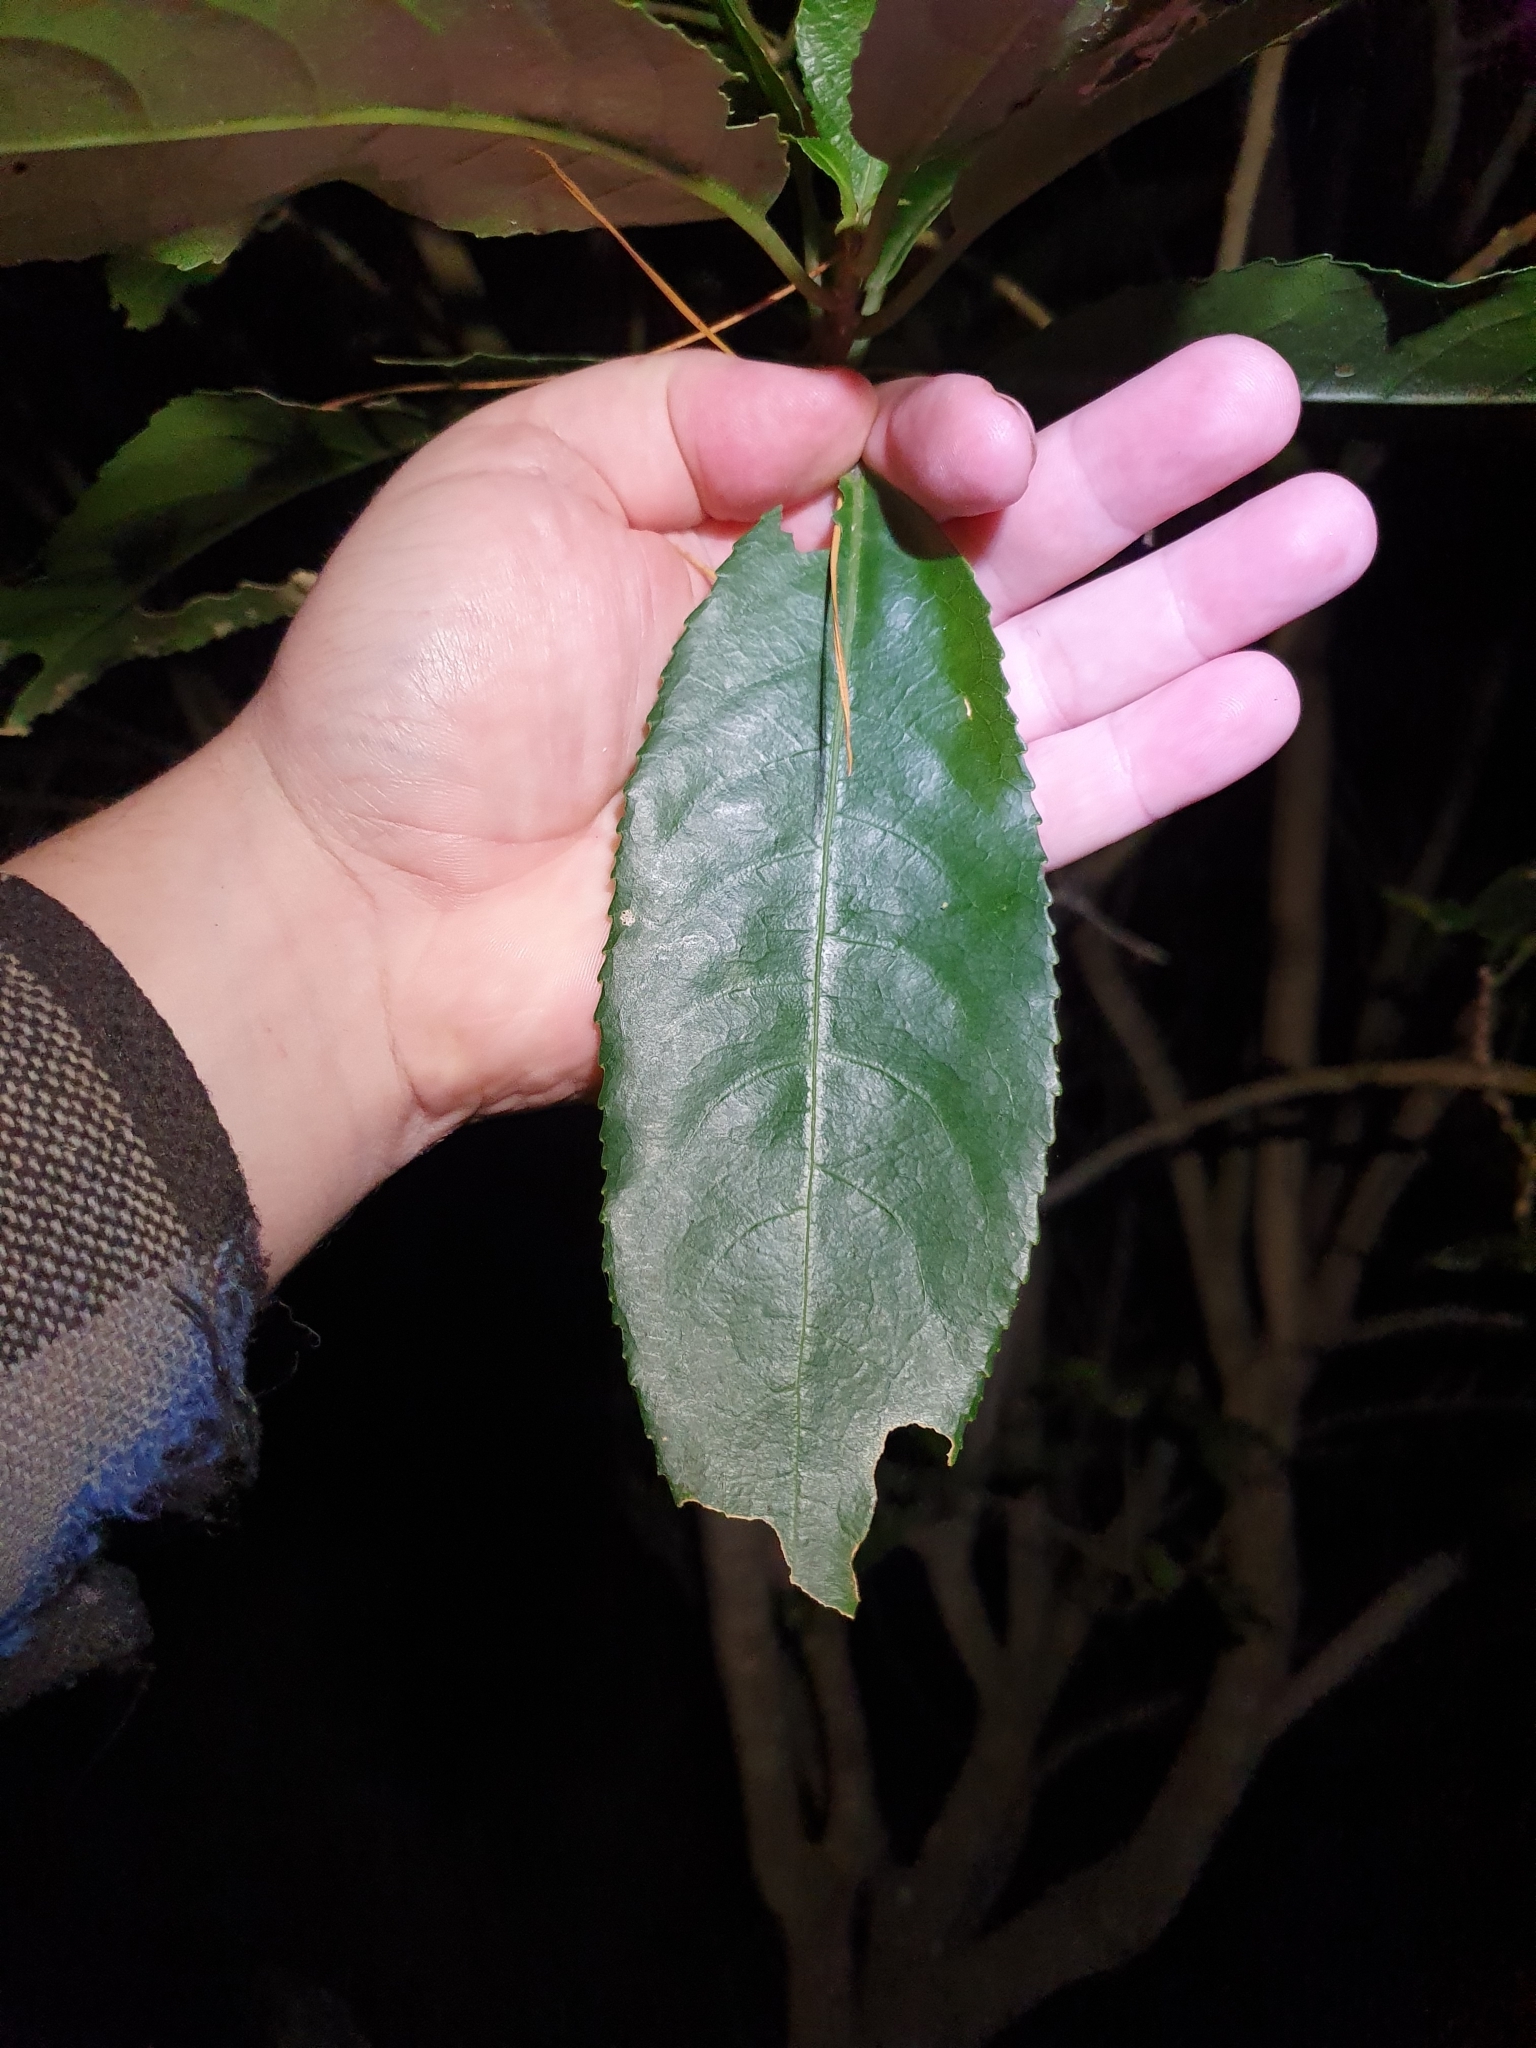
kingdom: Plantae
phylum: Tracheophyta
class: Magnoliopsida
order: Malpighiales
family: Violaceae
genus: Melicytus
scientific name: Melicytus ramiflorus
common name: Mahoe
